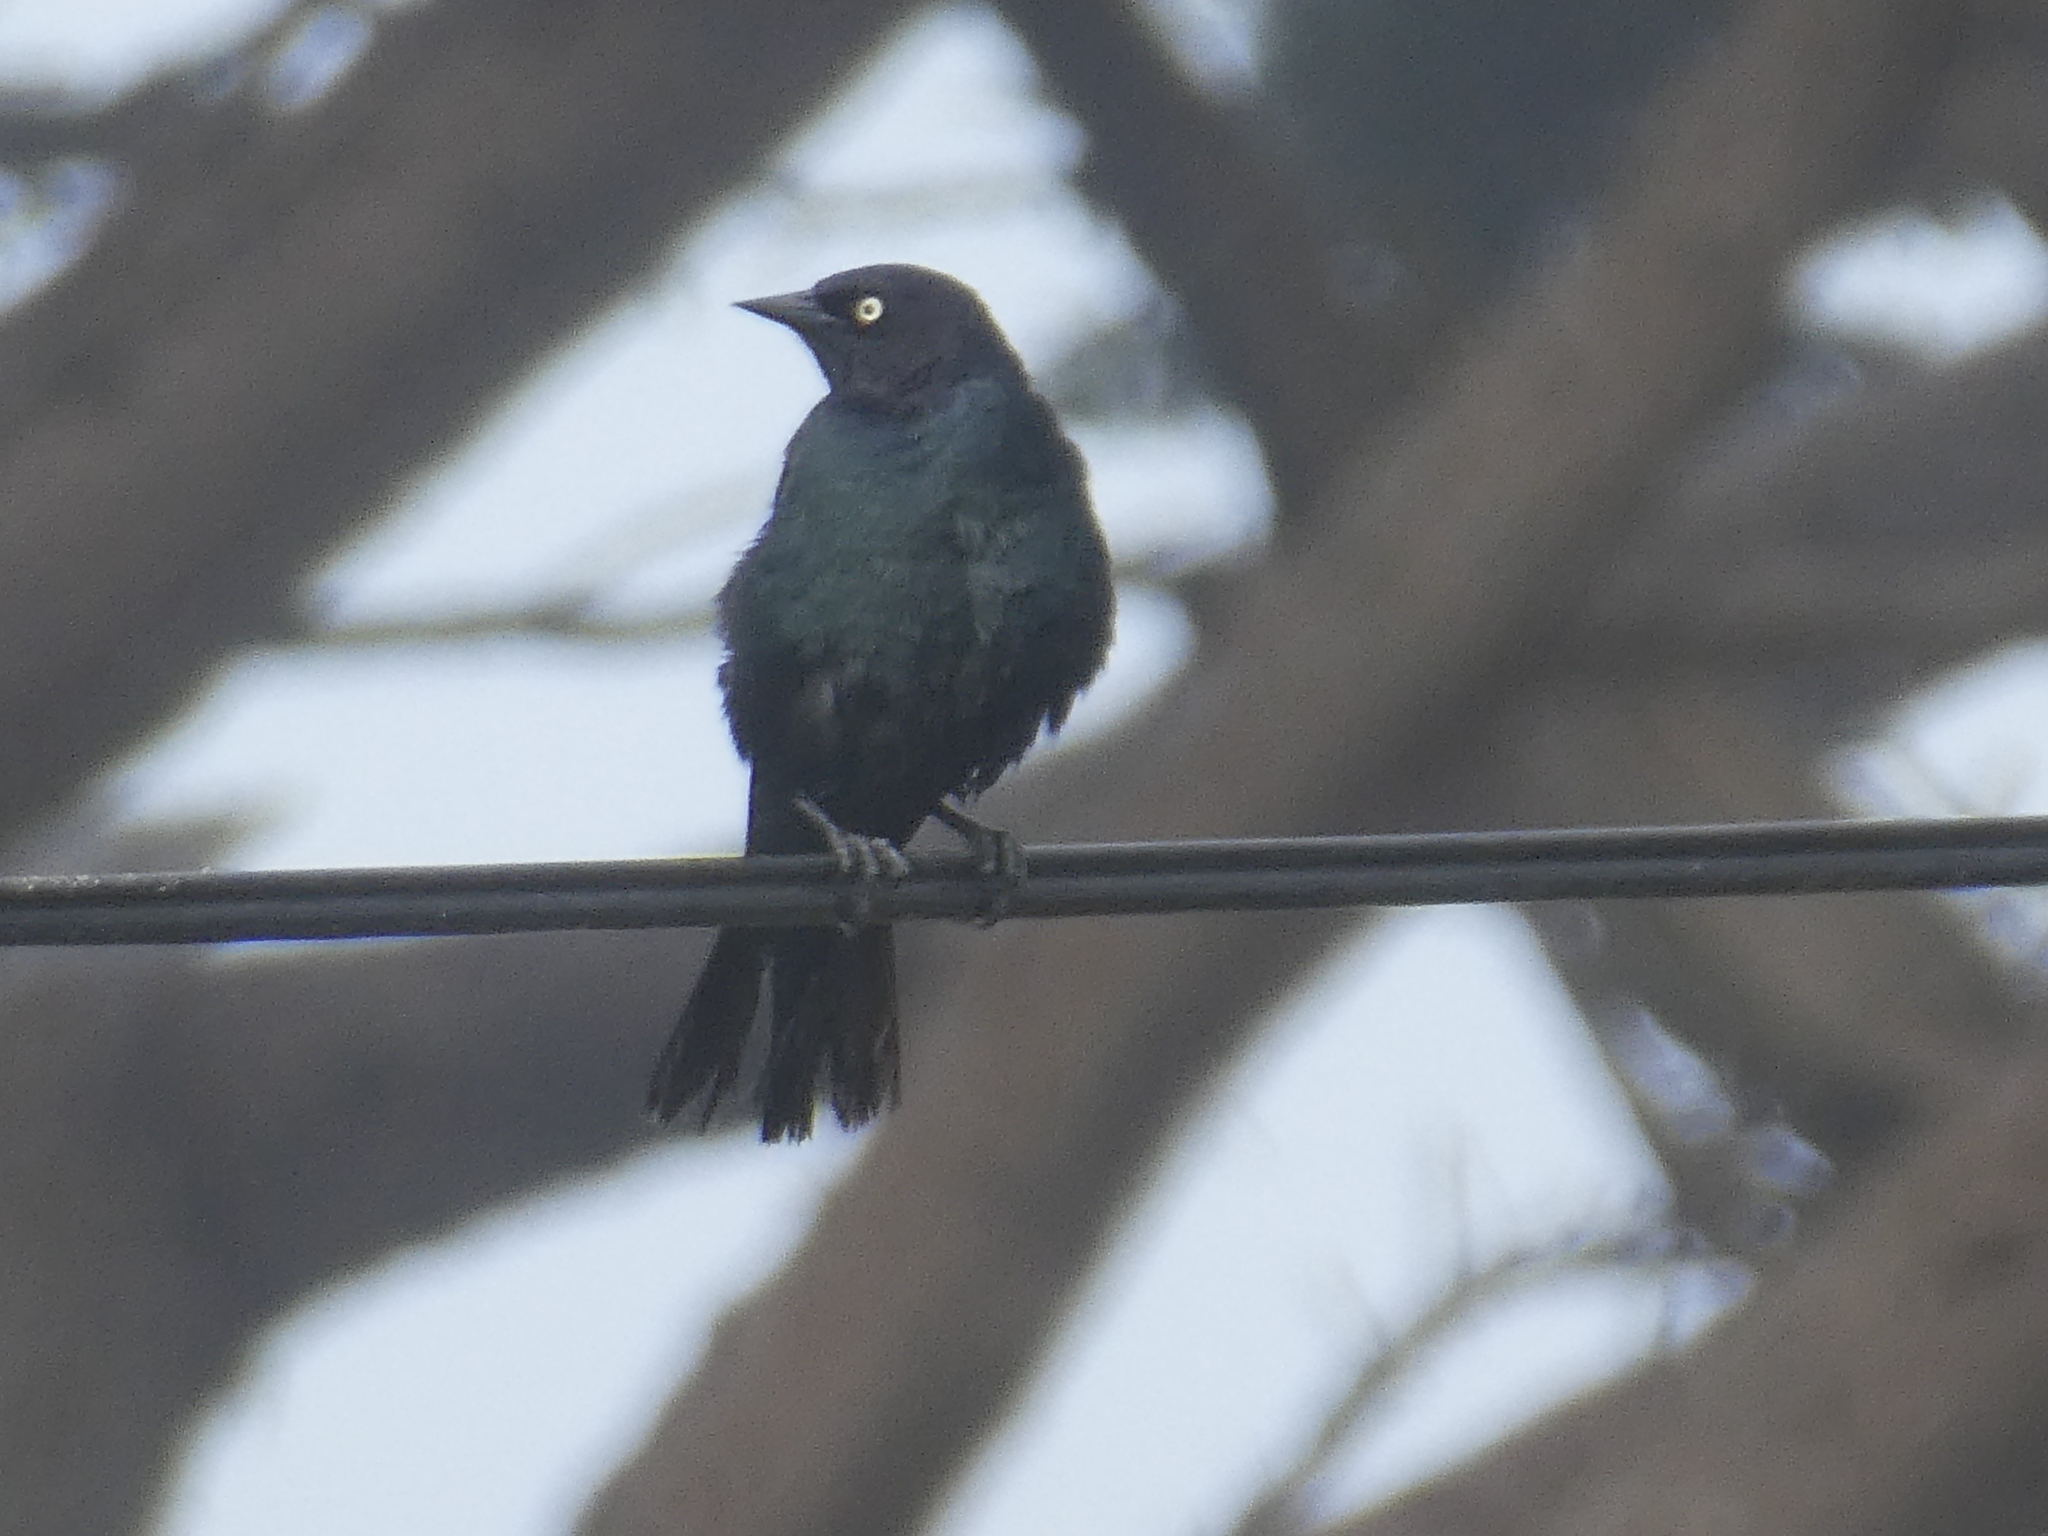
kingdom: Animalia
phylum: Chordata
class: Aves
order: Passeriformes
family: Icteridae
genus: Euphagus
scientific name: Euphagus cyanocephalus
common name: Brewer's blackbird
